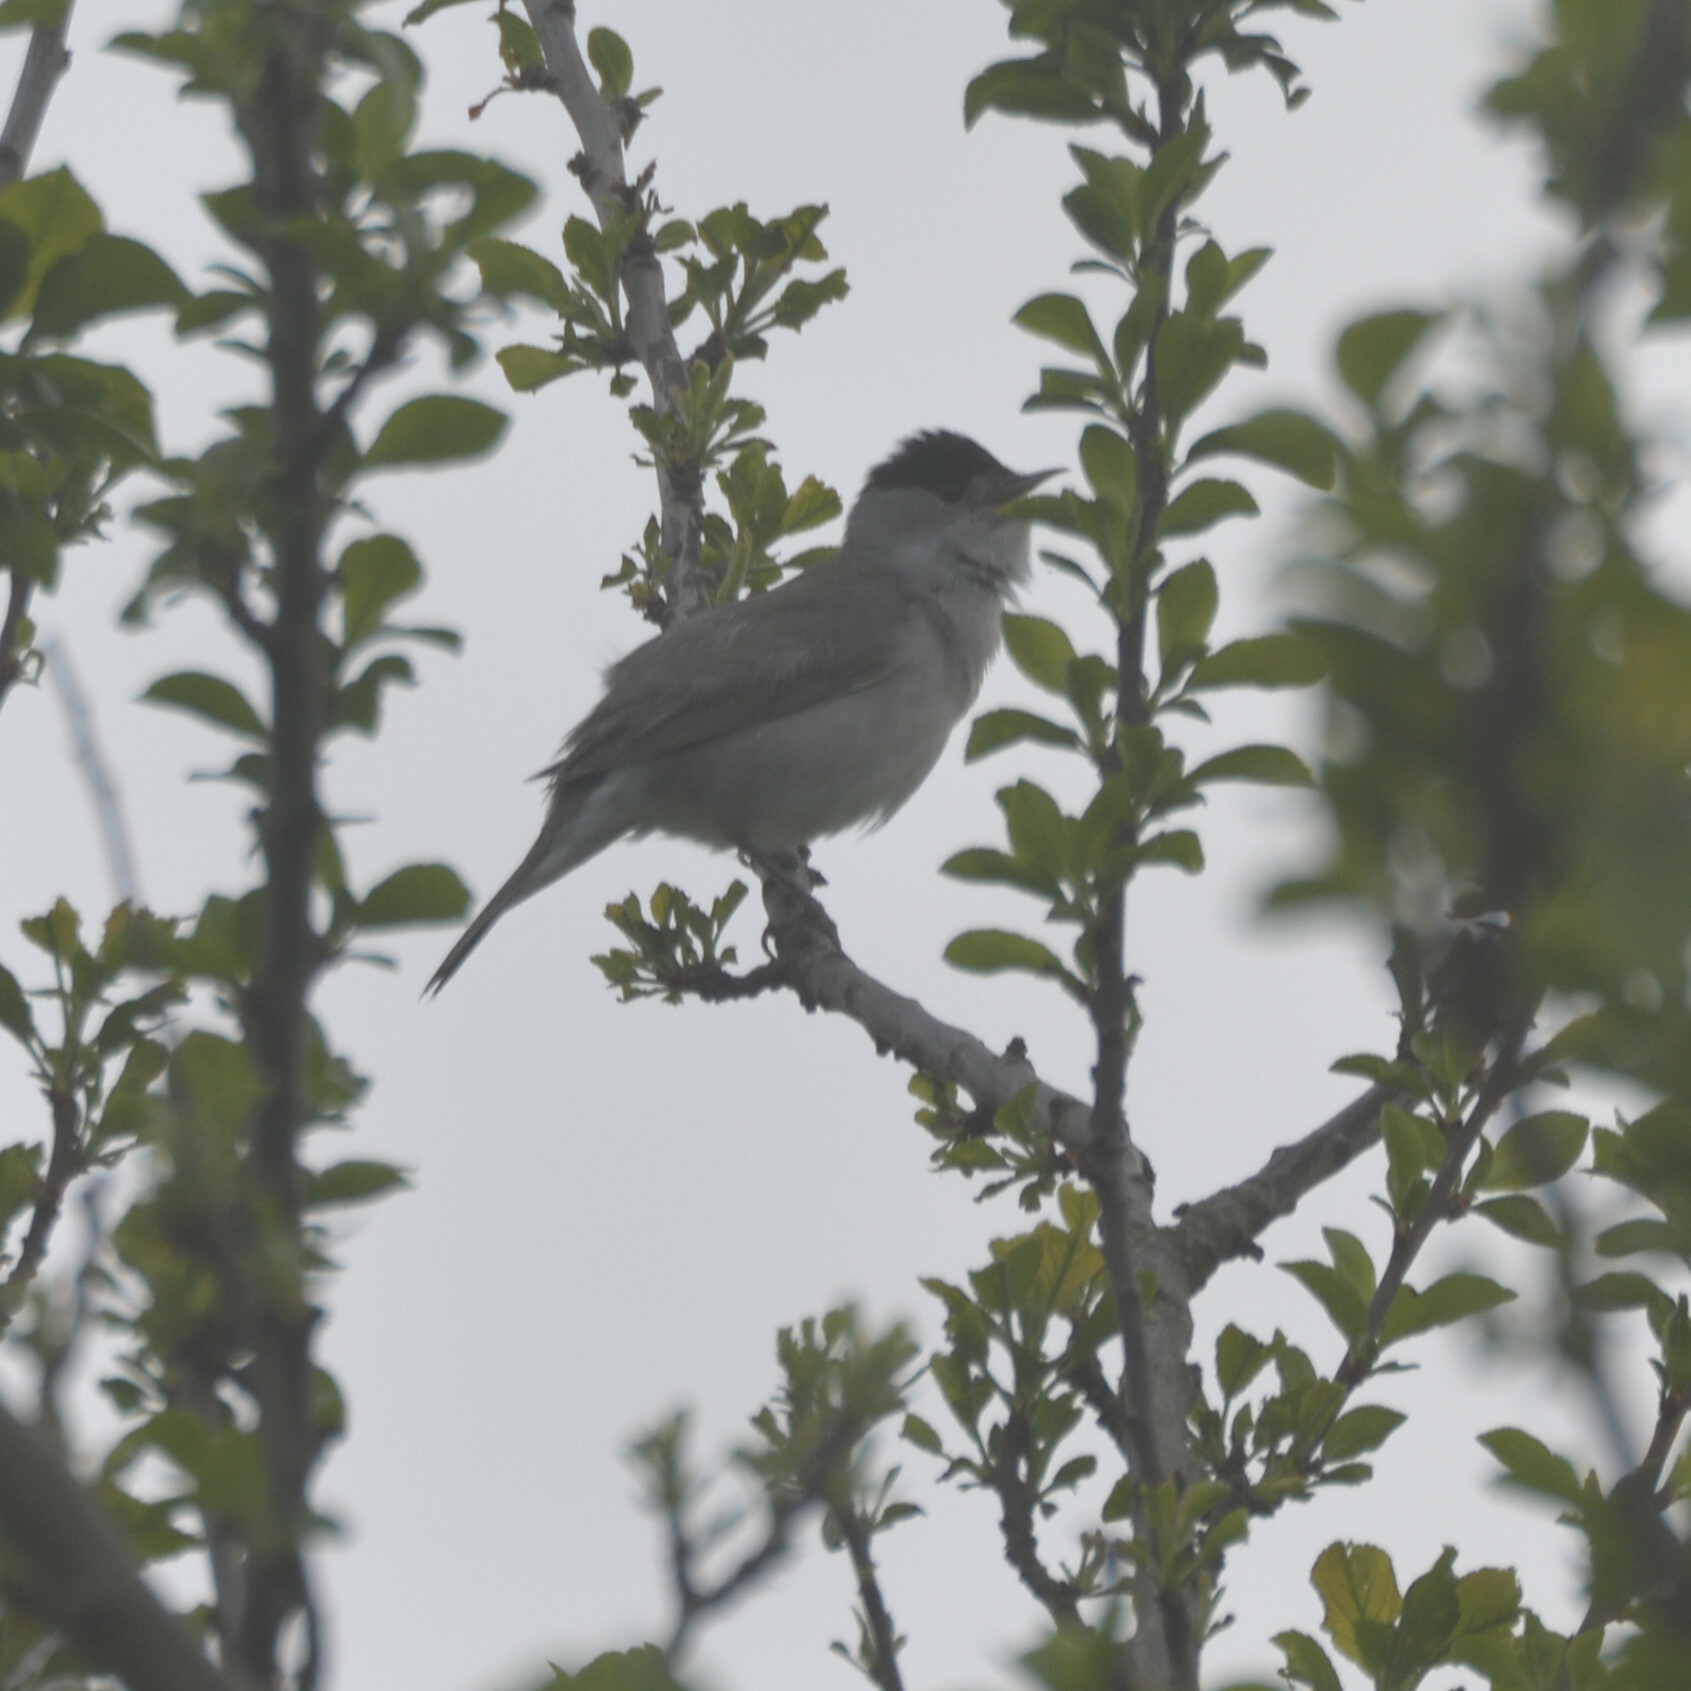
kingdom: Animalia
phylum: Chordata
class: Aves
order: Passeriformes
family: Sylviidae
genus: Sylvia
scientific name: Sylvia atricapilla
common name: Eurasian blackcap
